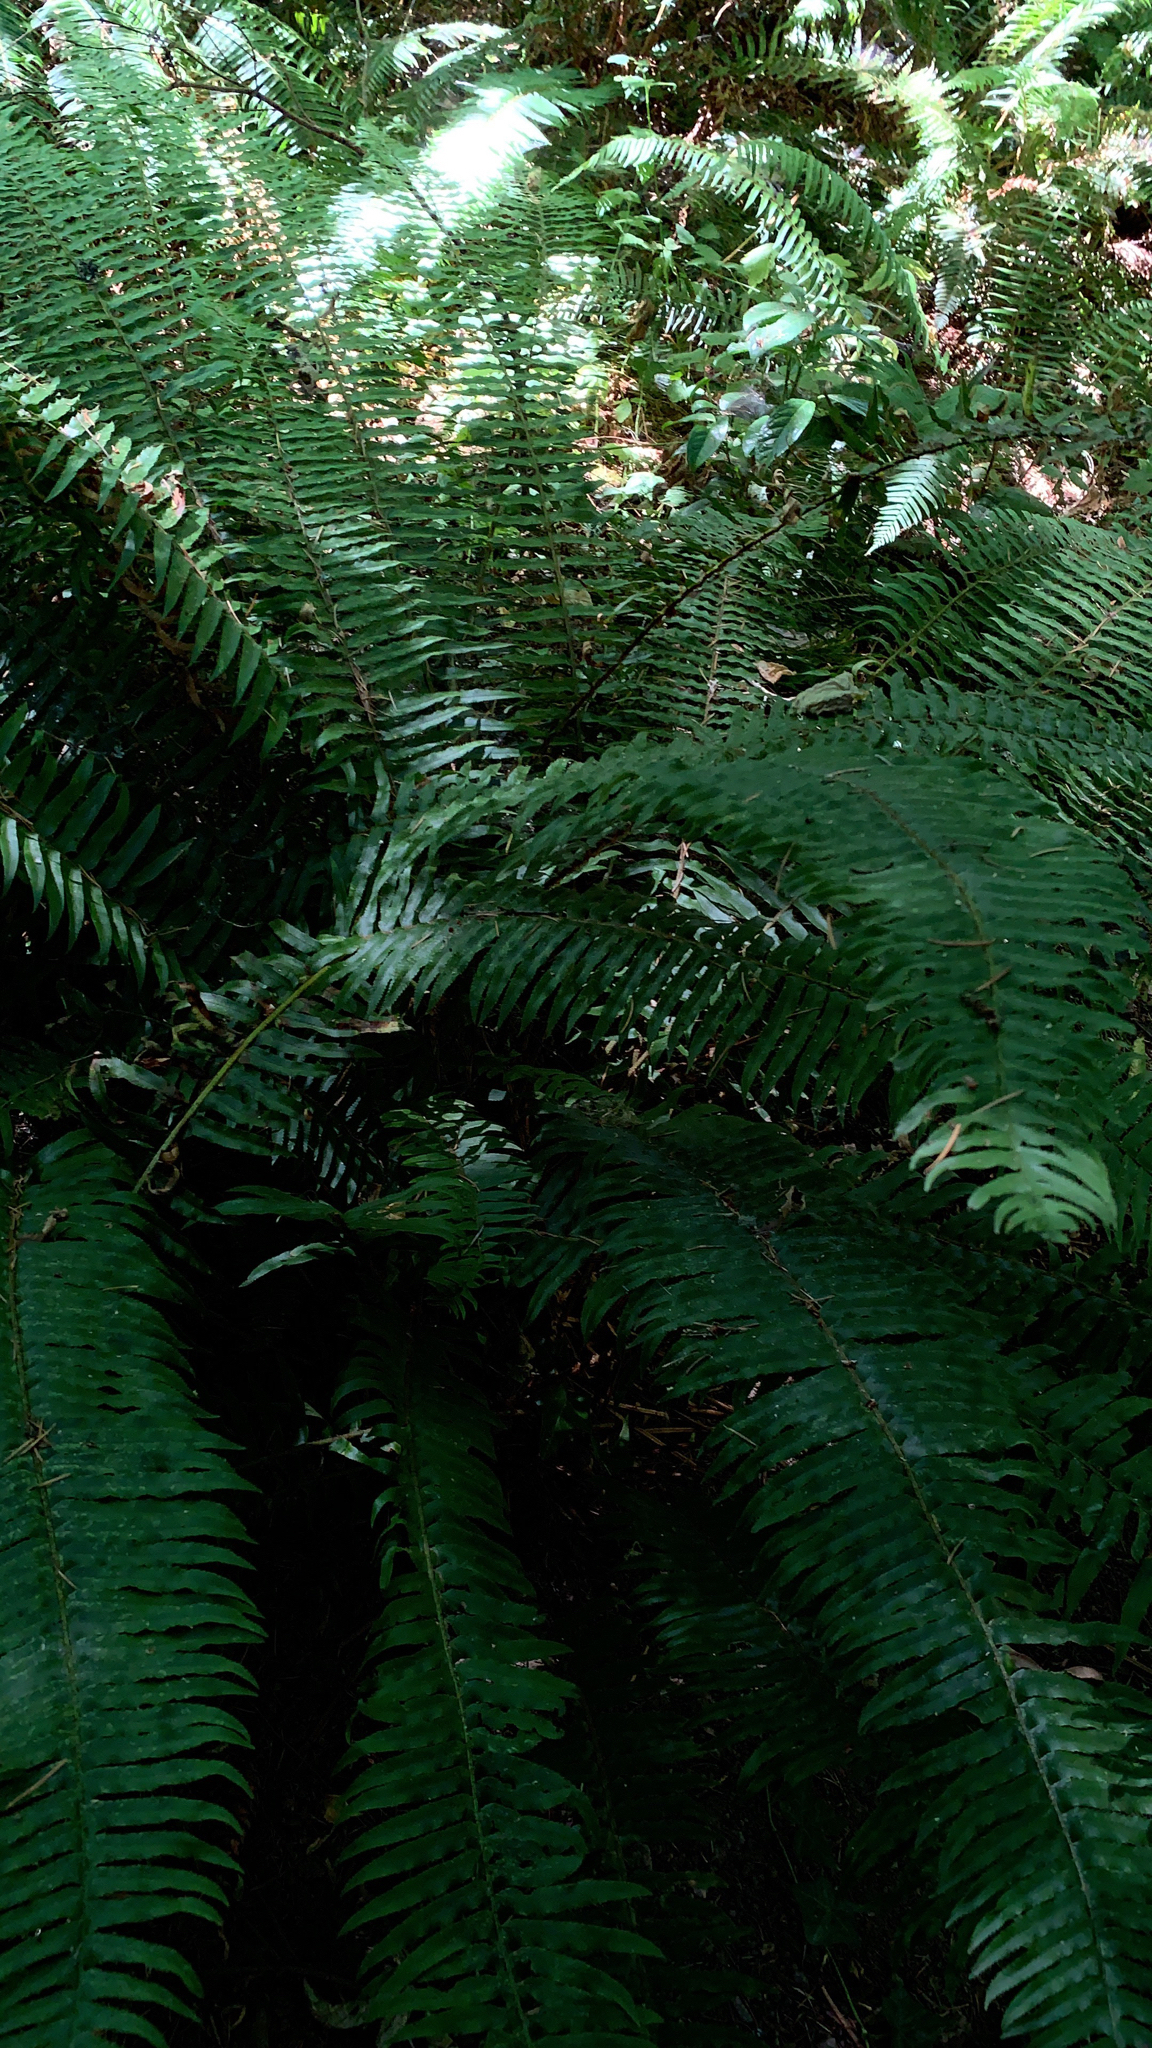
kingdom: Plantae
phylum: Tracheophyta
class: Polypodiopsida
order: Polypodiales
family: Dryopteridaceae
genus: Polystichum
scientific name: Polystichum munitum
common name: Western sword-fern
